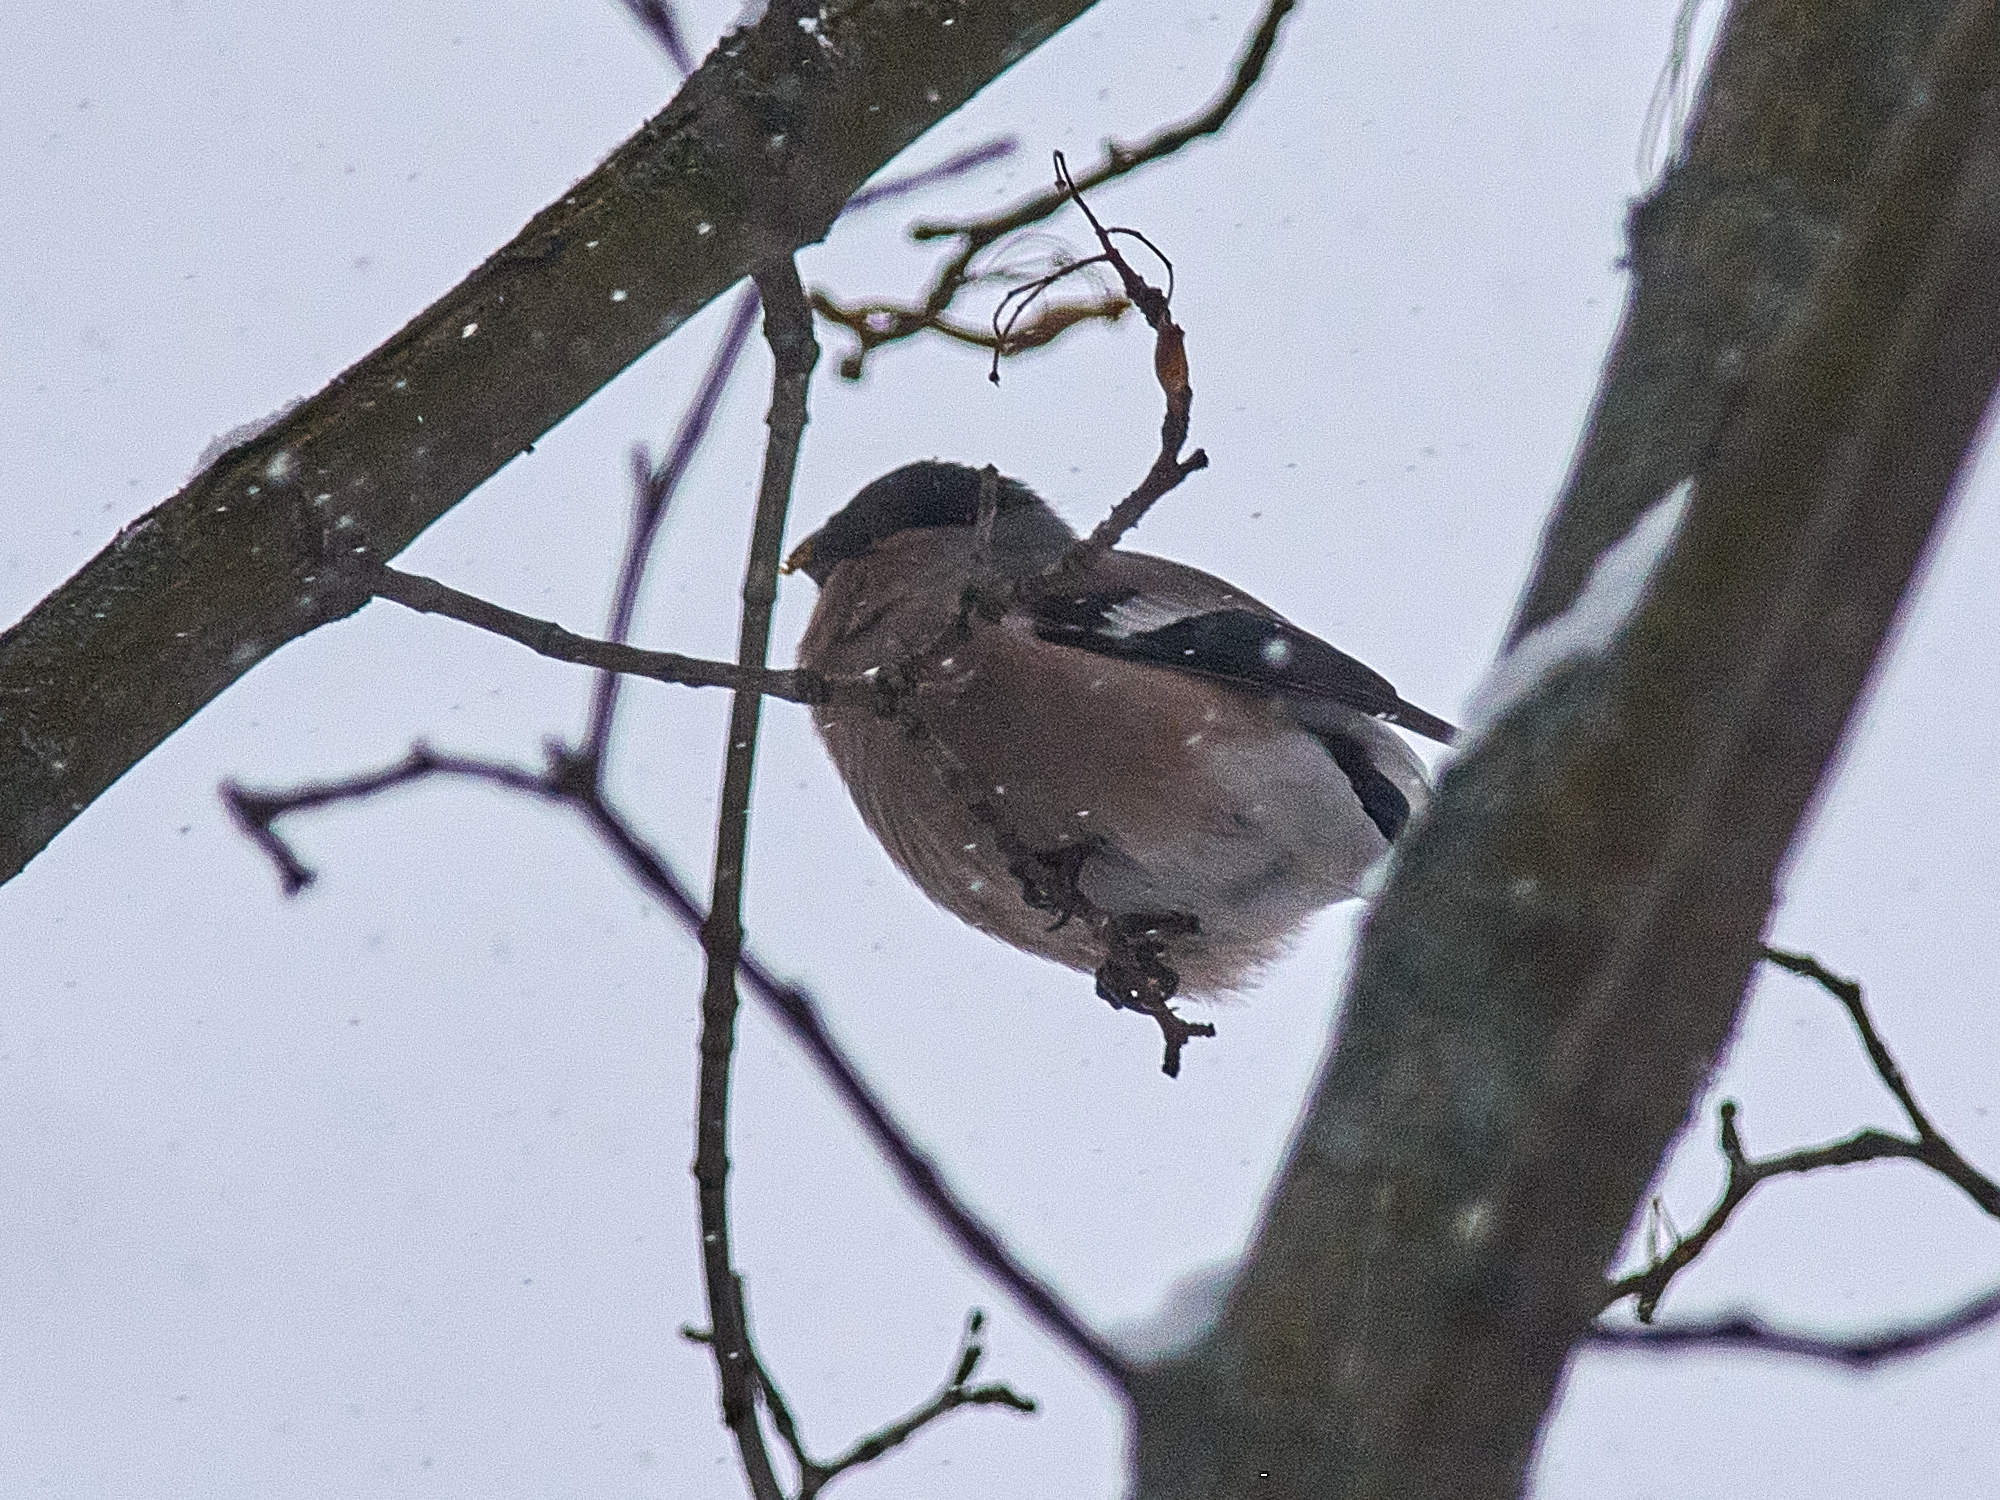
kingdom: Animalia
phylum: Chordata
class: Aves
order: Passeriformes
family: Fringillidae
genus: Pyrrhula
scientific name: Pyrrhula pyrrhula
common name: Eurasian bullfinch
